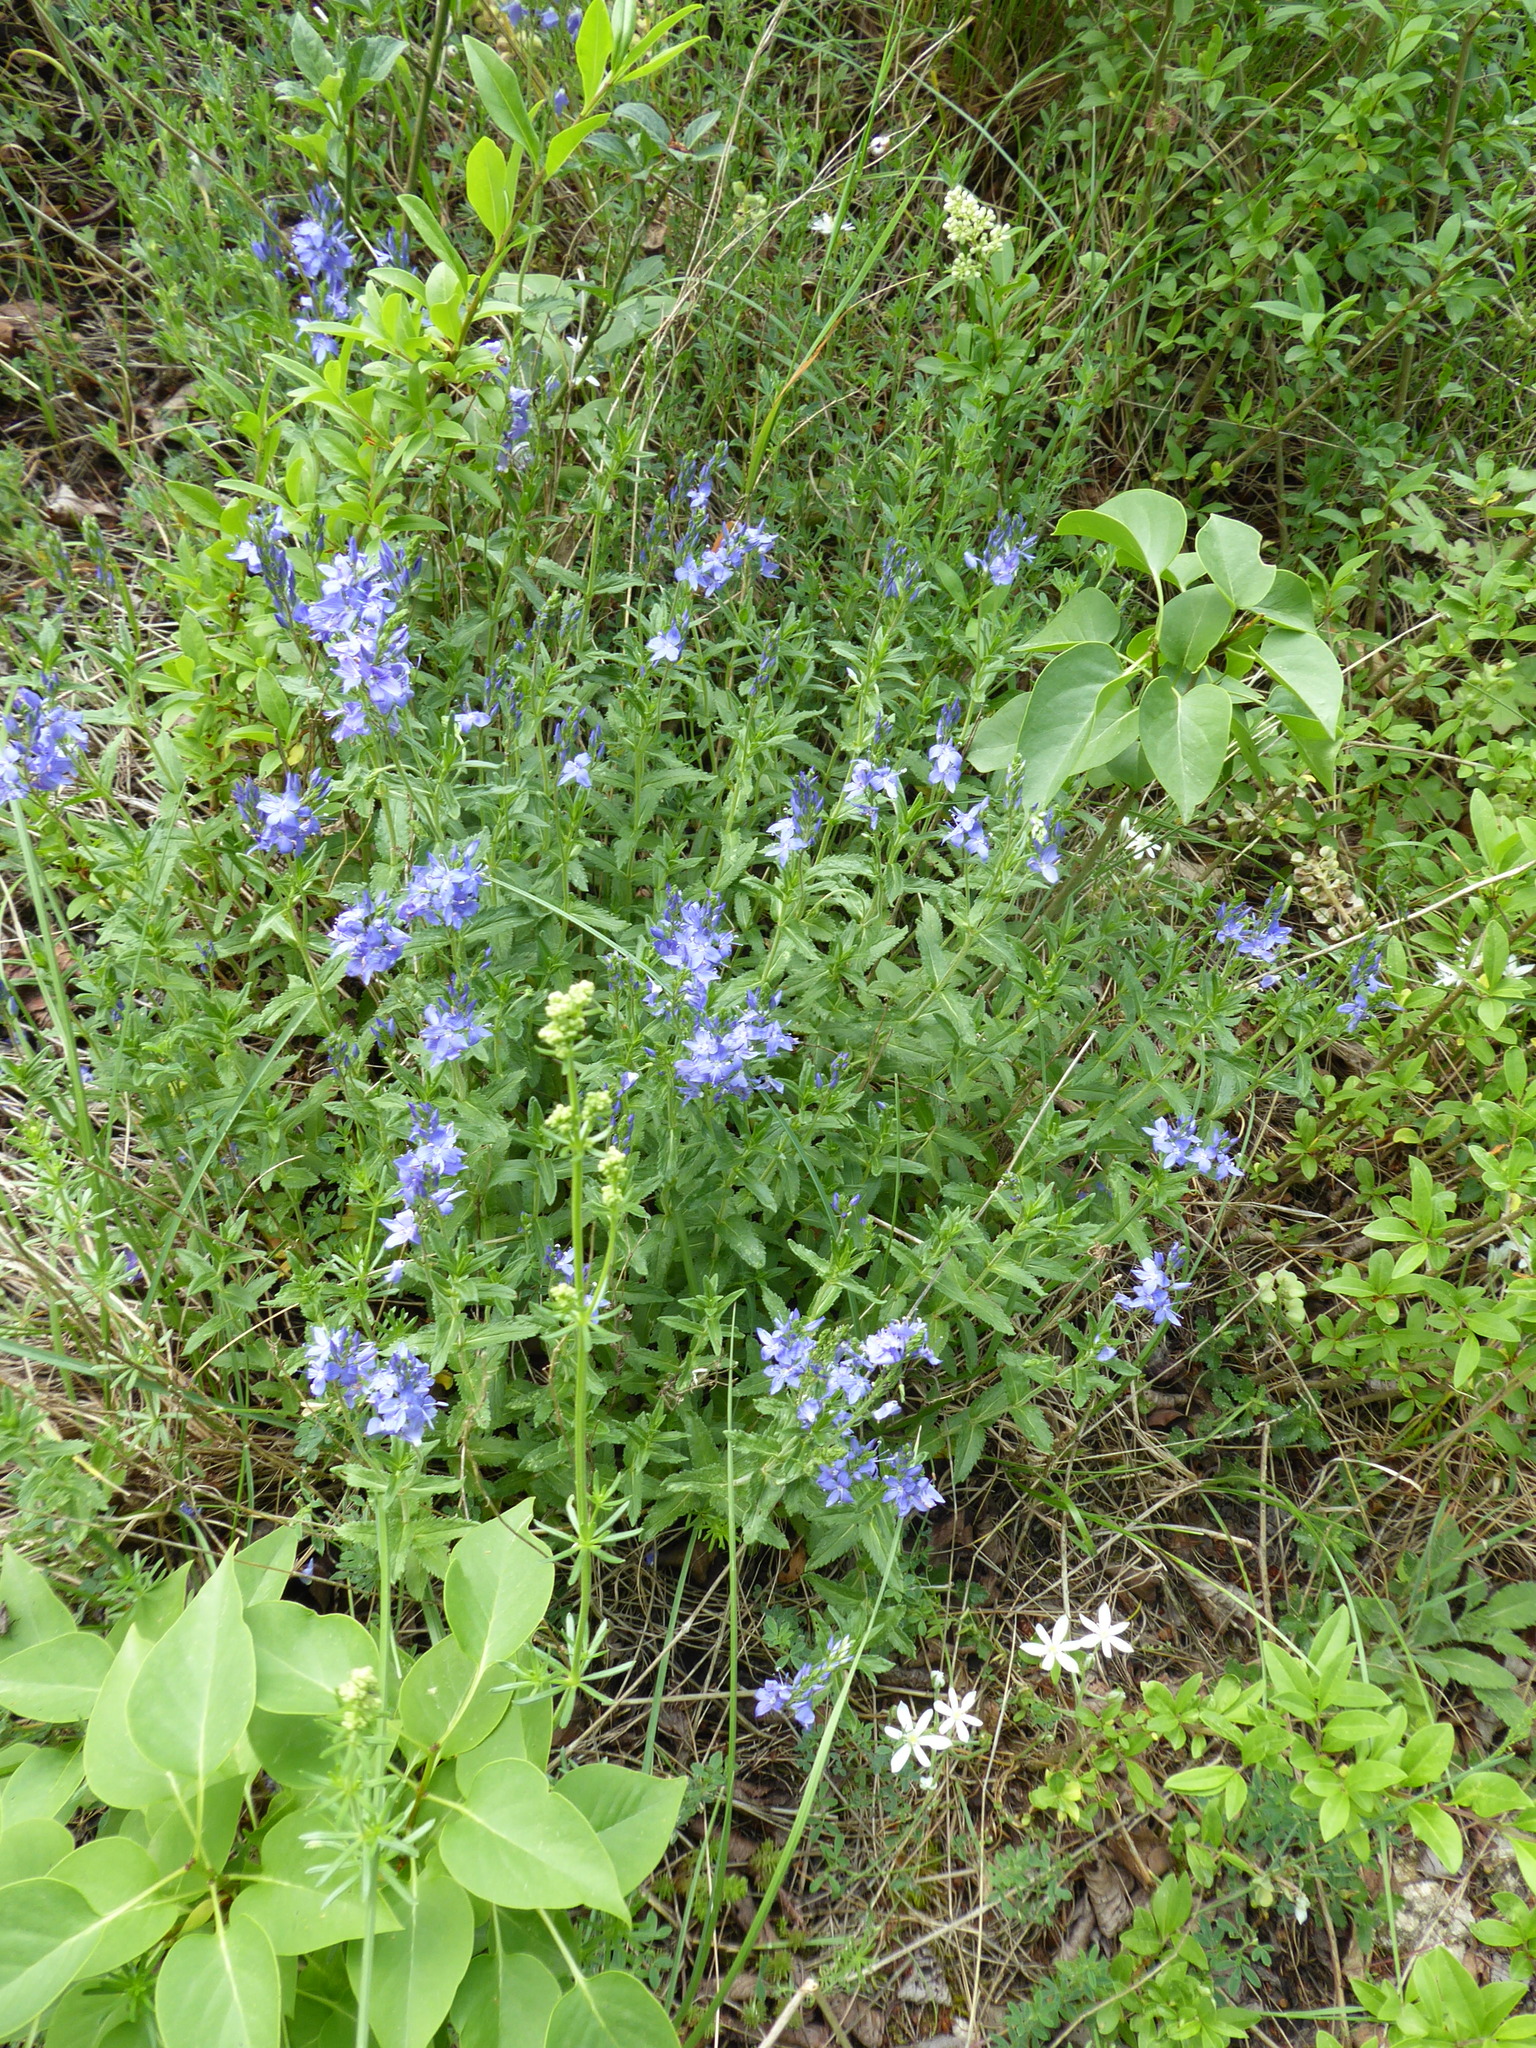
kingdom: Plantae
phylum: Tracheophyta
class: Magnoliopsida
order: Lamiales
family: Plantaginaceae
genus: Veronica
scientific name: Veronica teucrium
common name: Large speedwell
